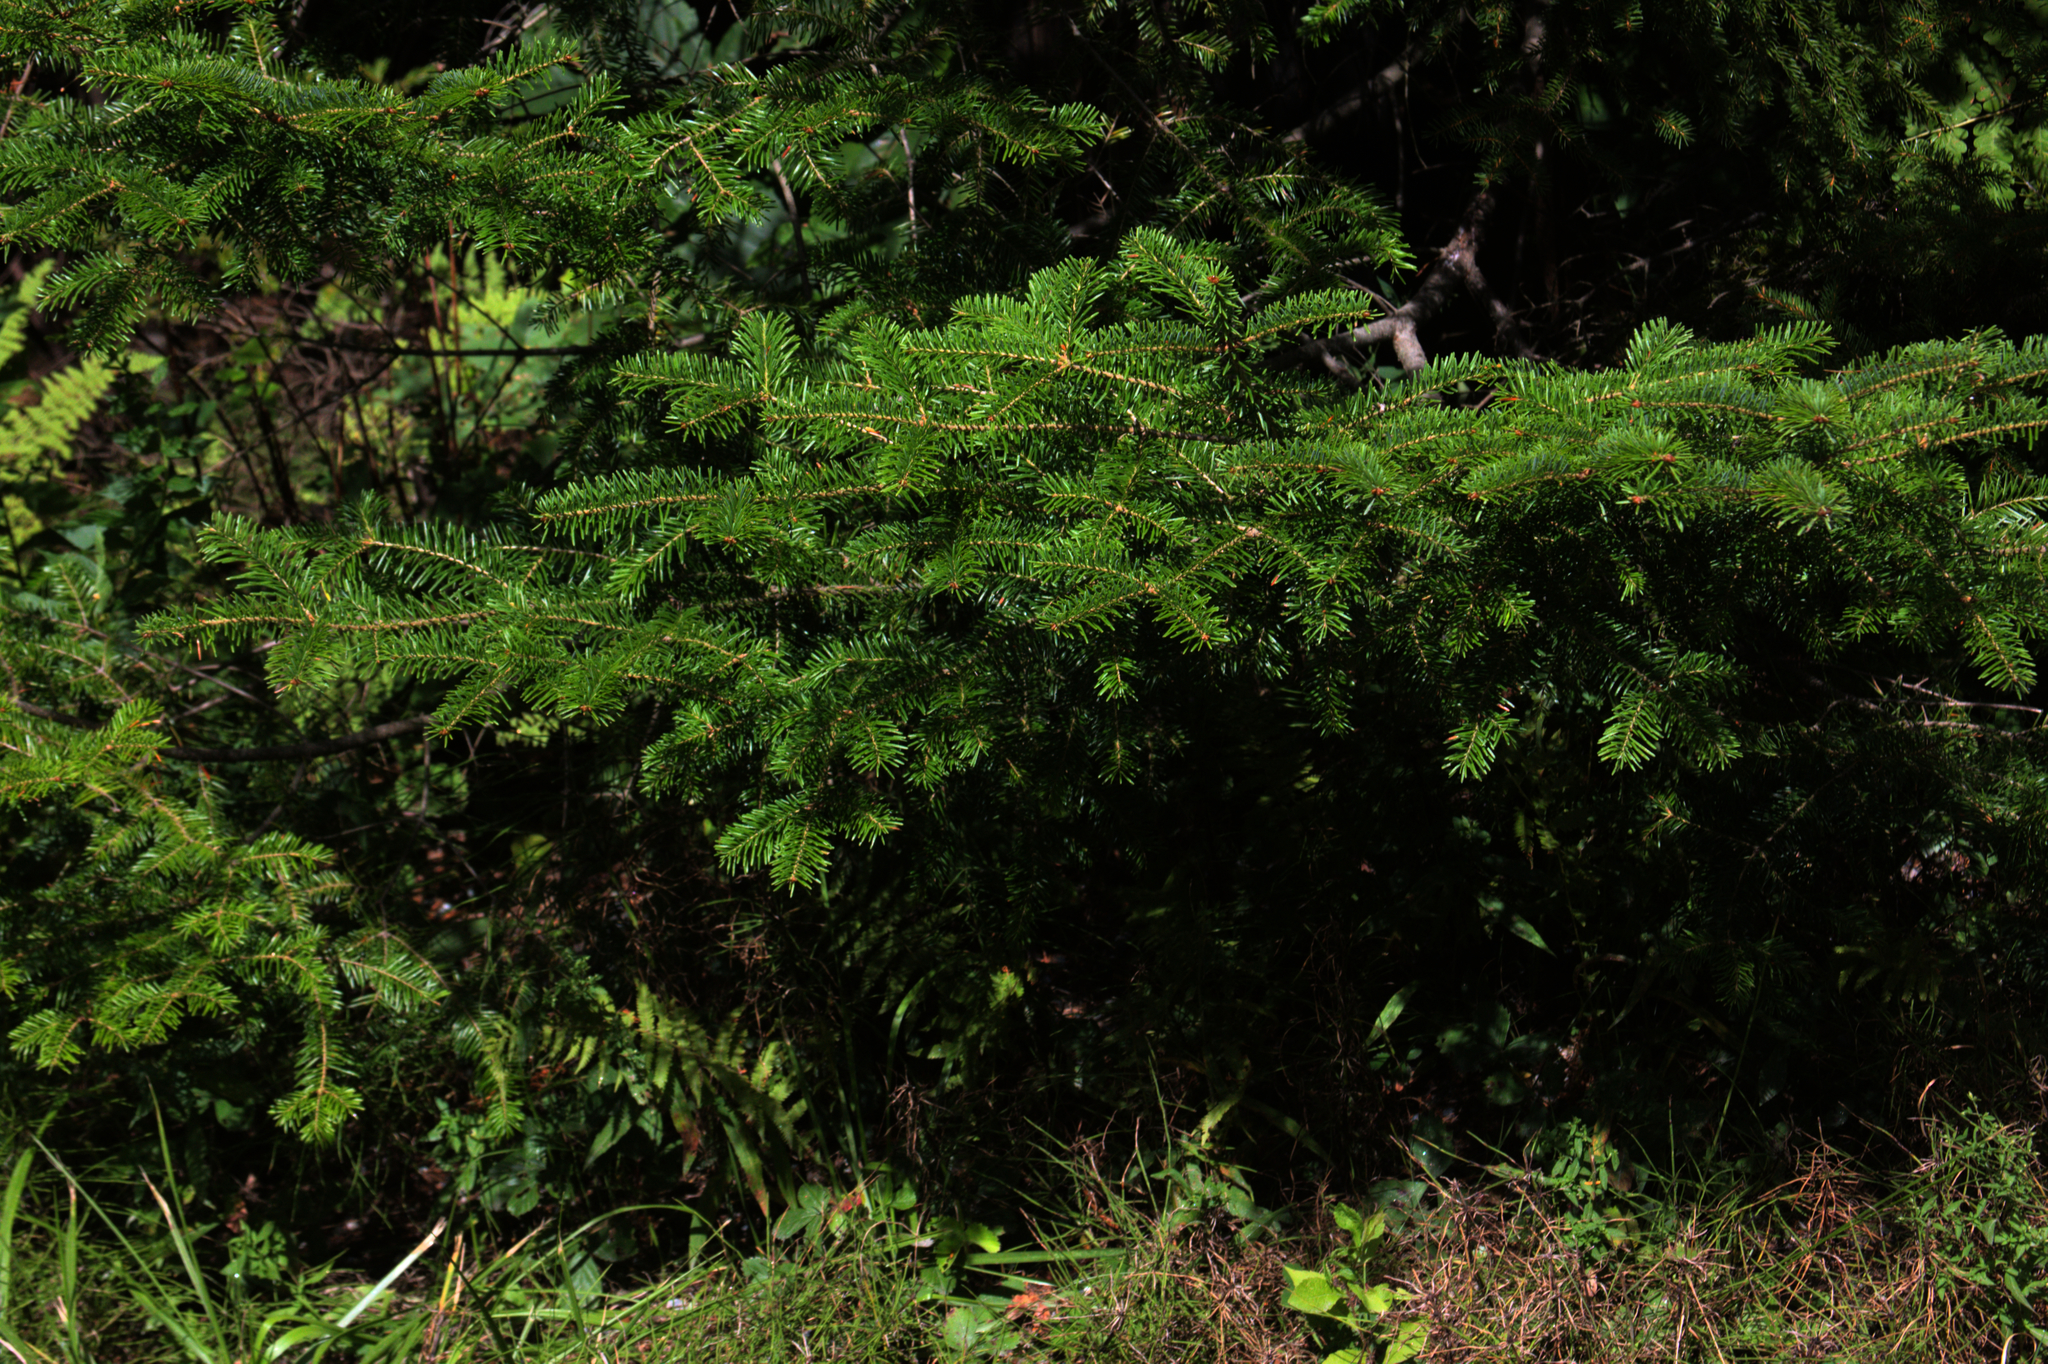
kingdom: Plantae
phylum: Tracheophyta
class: Pinopsida
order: Pinales
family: Pinaceae
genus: Abies
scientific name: Abies balsamea
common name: Balsam fir
